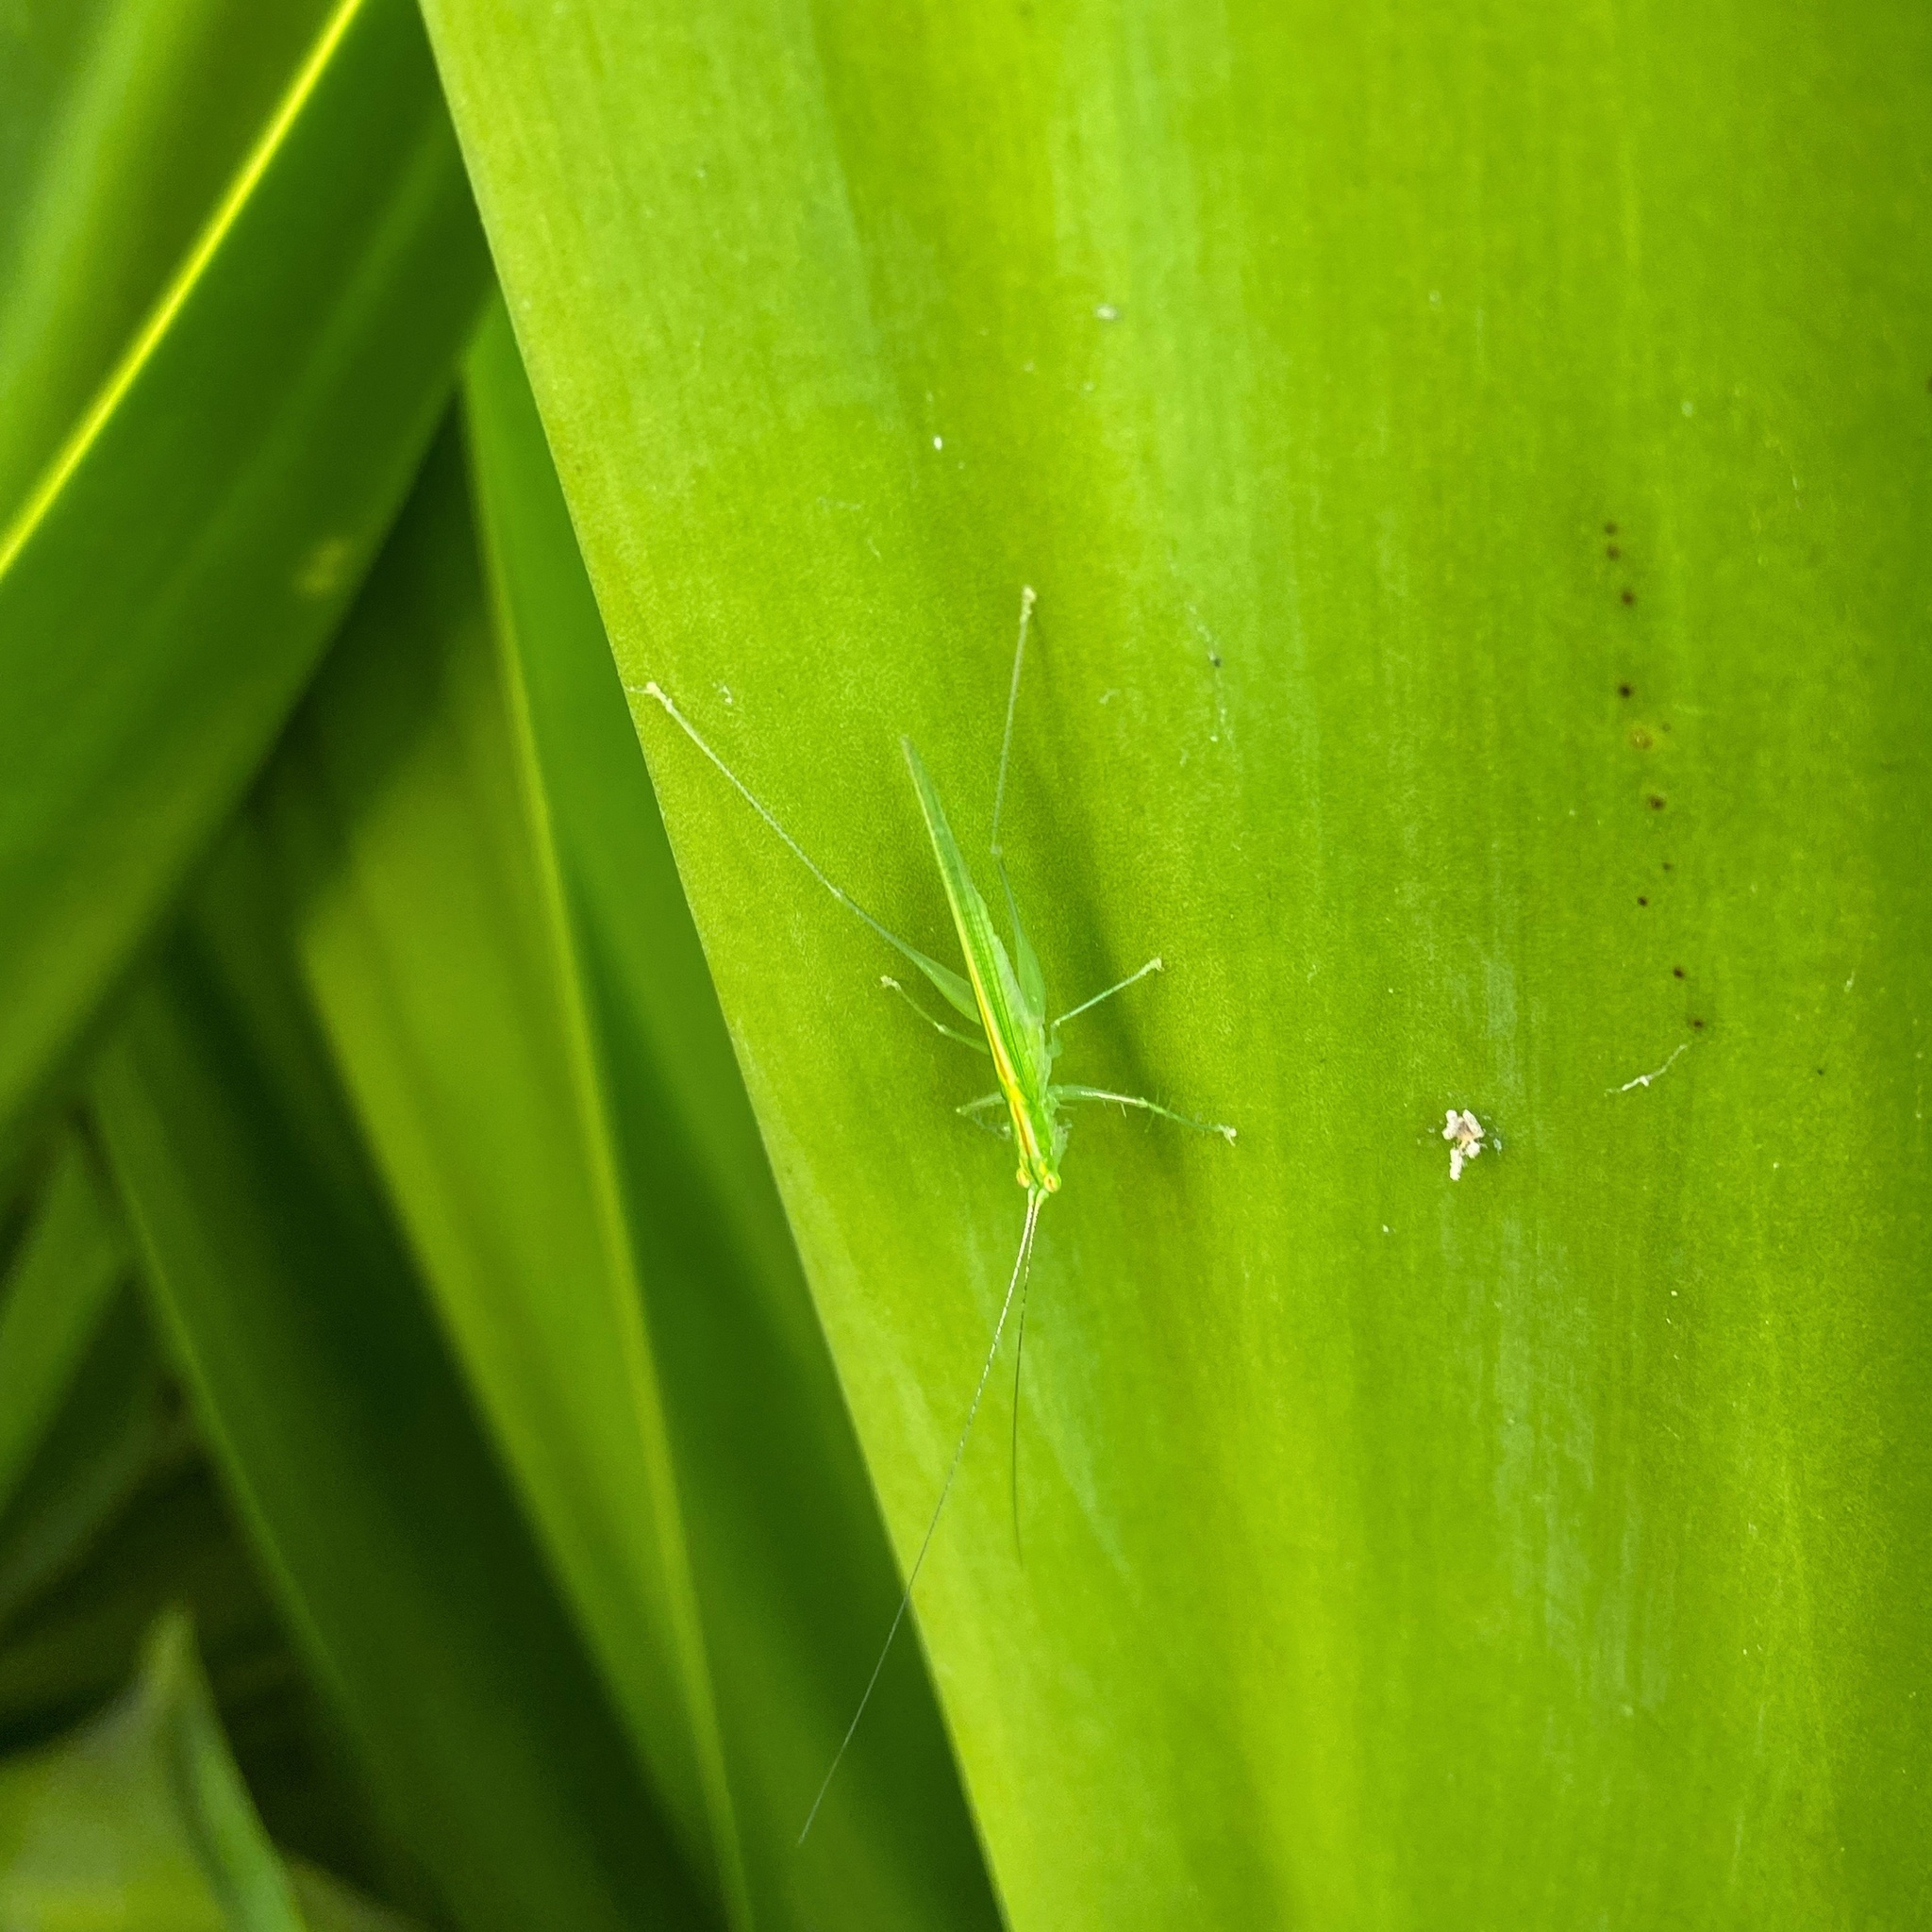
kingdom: Animalia
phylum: Arthropoda
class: Insecta
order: Orthoptera
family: Tettigoniidae
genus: Phlugis
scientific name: Phlugis ocraceovittata
